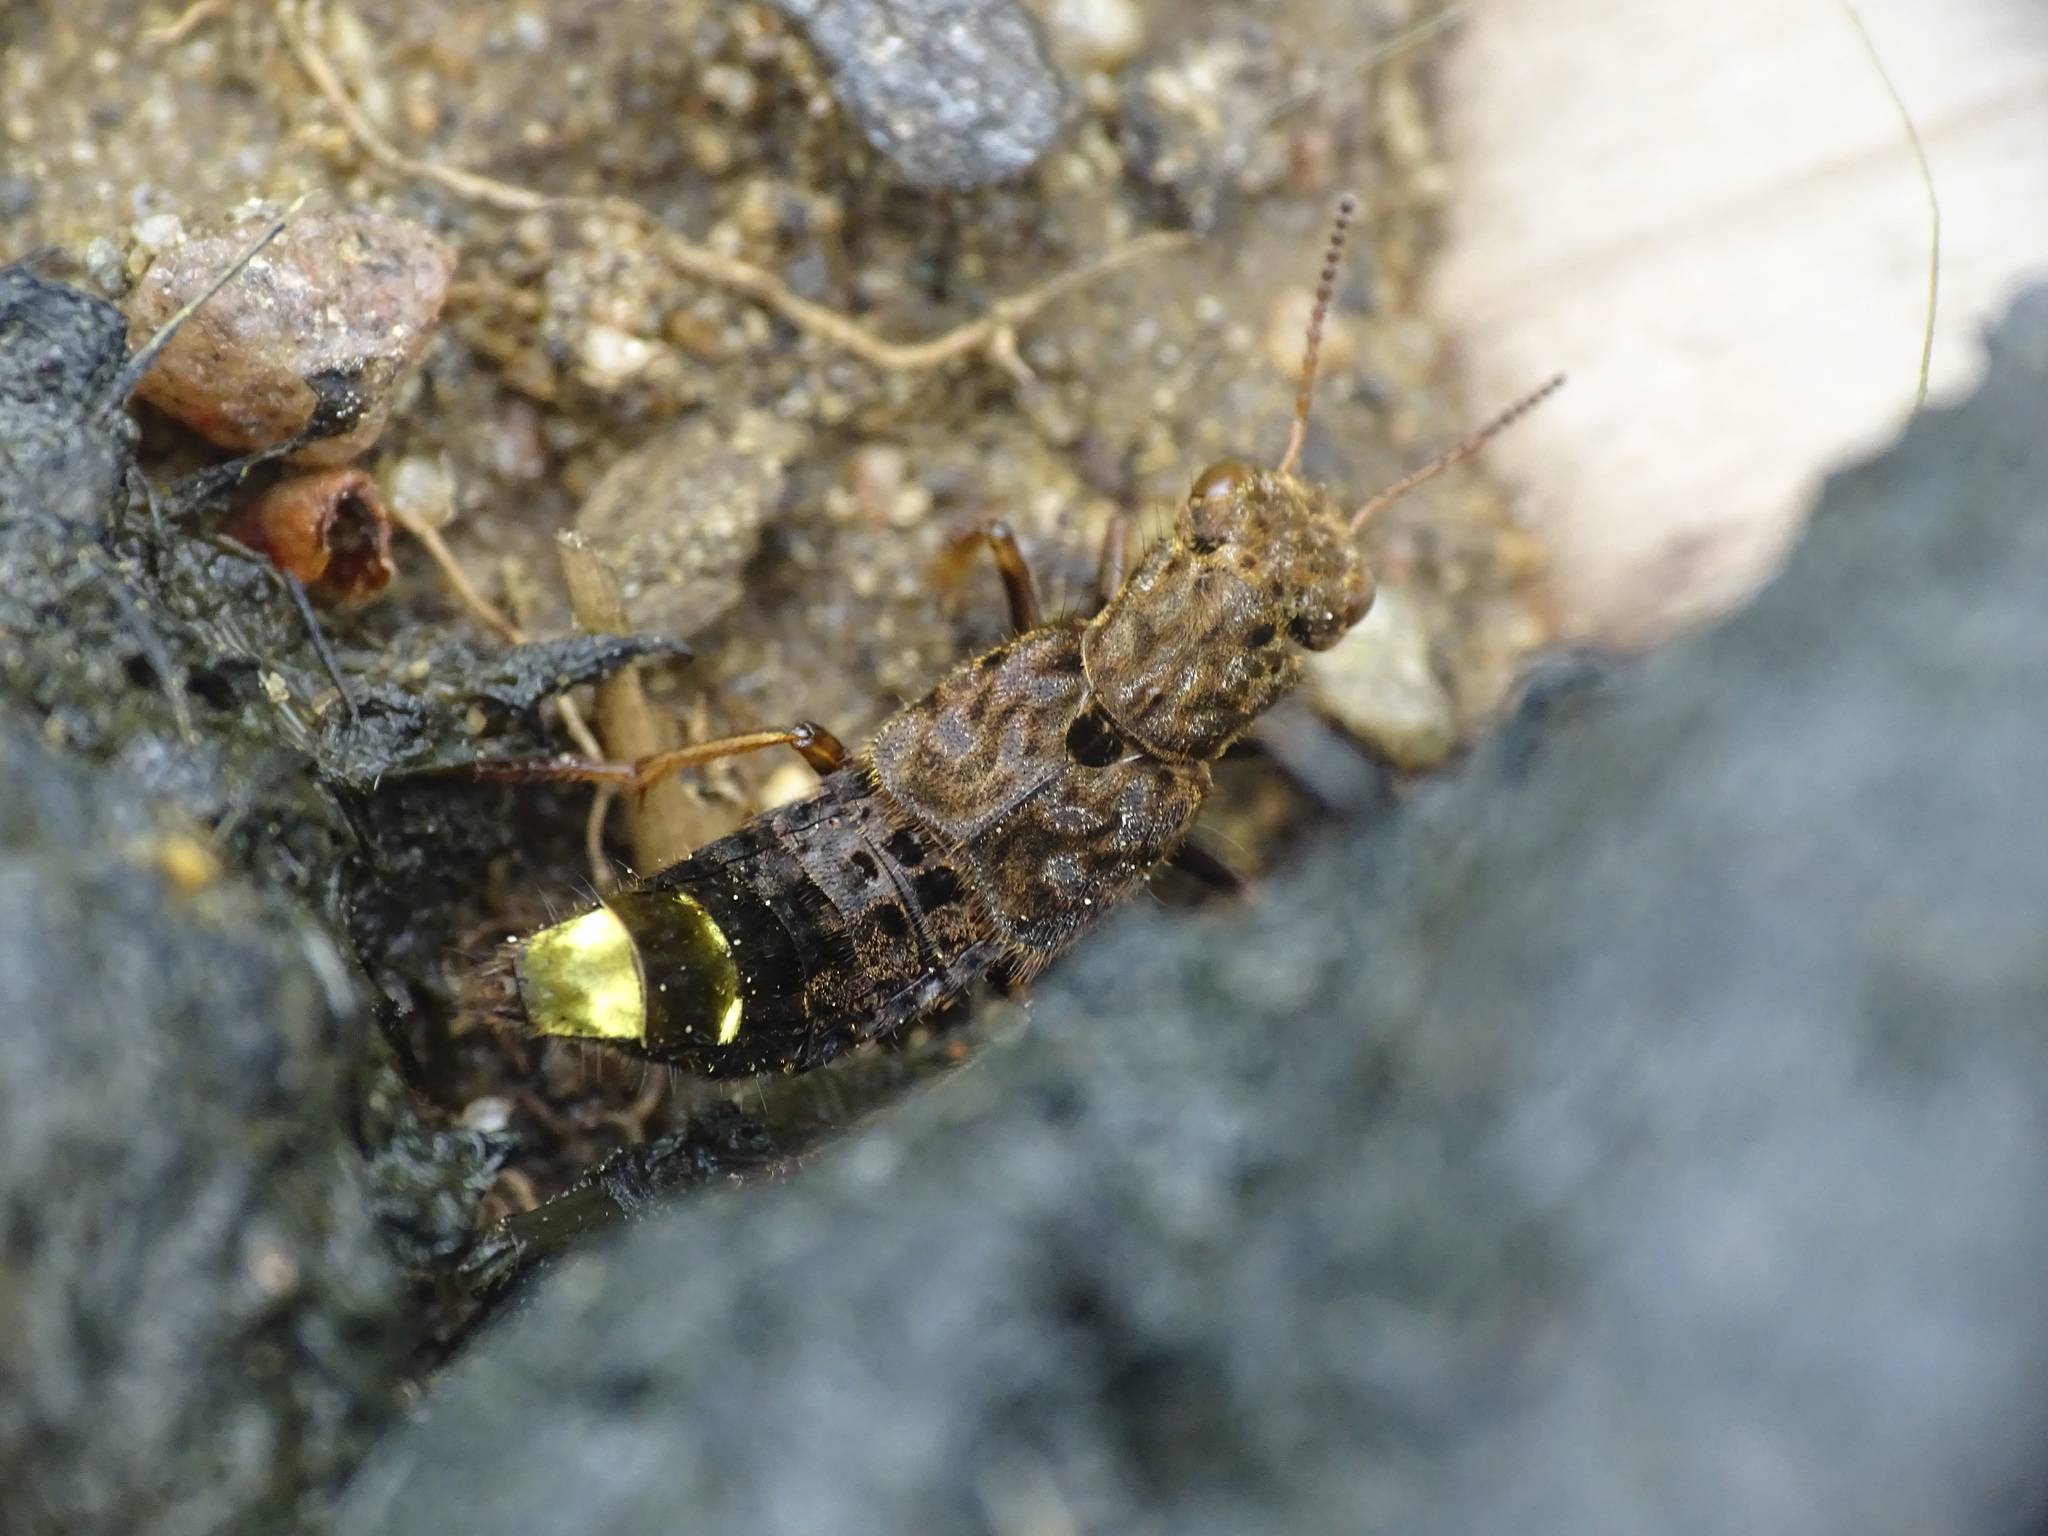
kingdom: Animalia
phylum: Arthropoda
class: Insecta
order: Coleoptera
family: Staphylinidae
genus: Ontholestes
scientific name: Ontholestes cingulatus
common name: Gold-and-brown rove beetle
